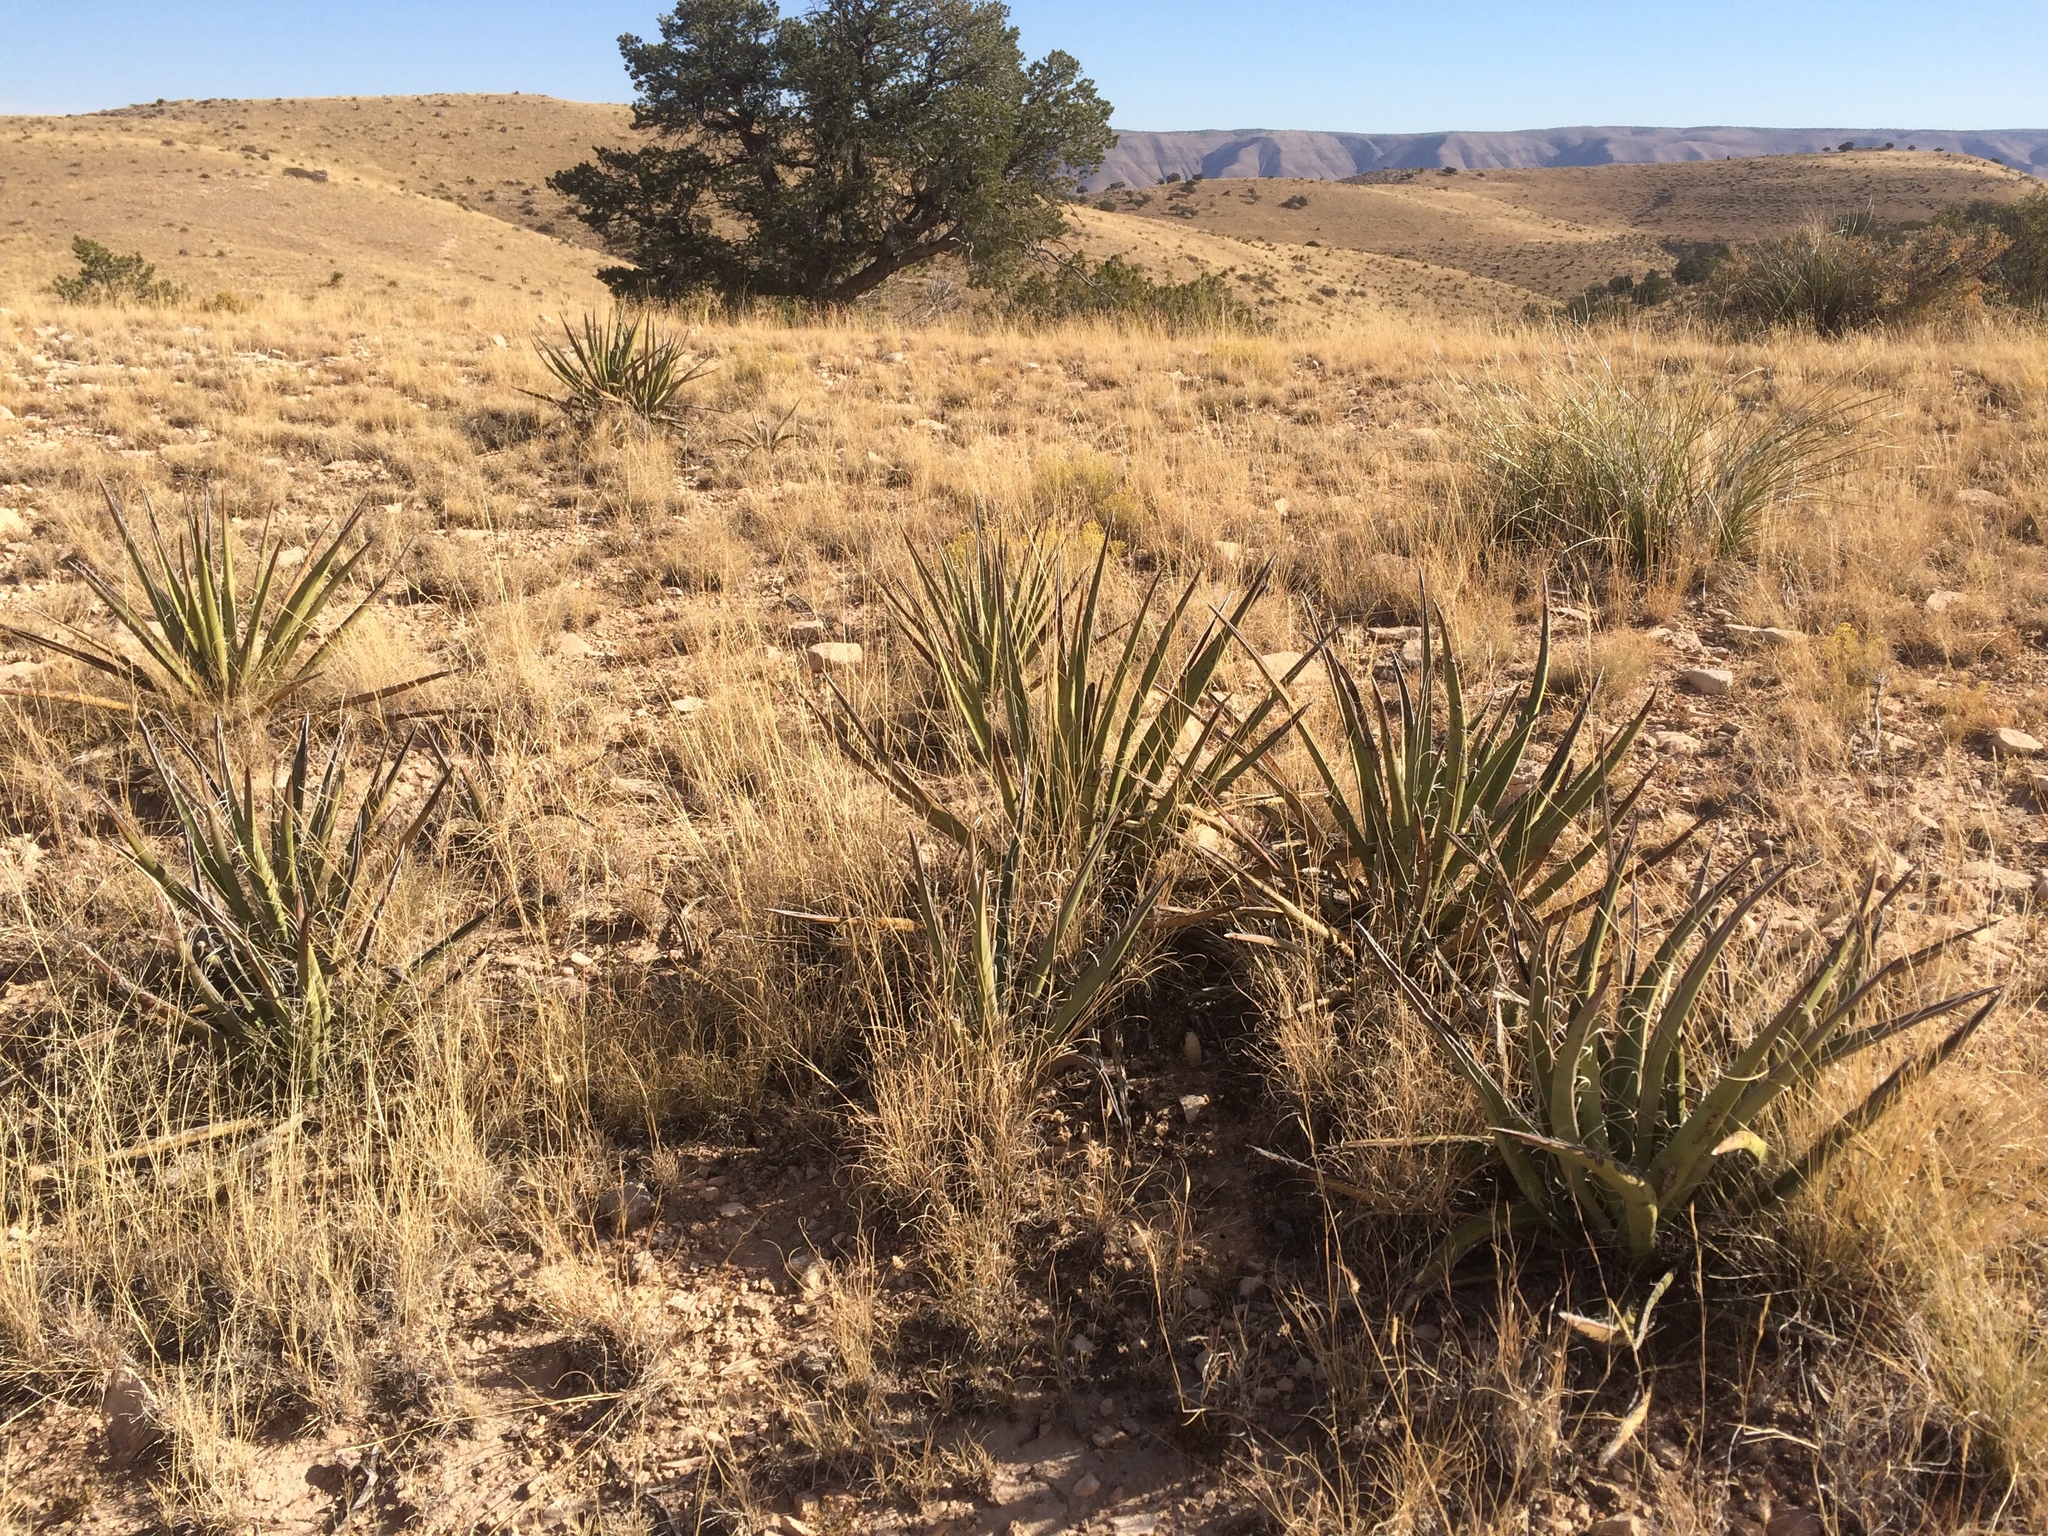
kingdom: Plantae
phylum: Tracheophyta
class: Liliopsida
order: Asparagales
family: Asparagaceae
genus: Yucca
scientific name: Yucca baccata
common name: Banana yucca
